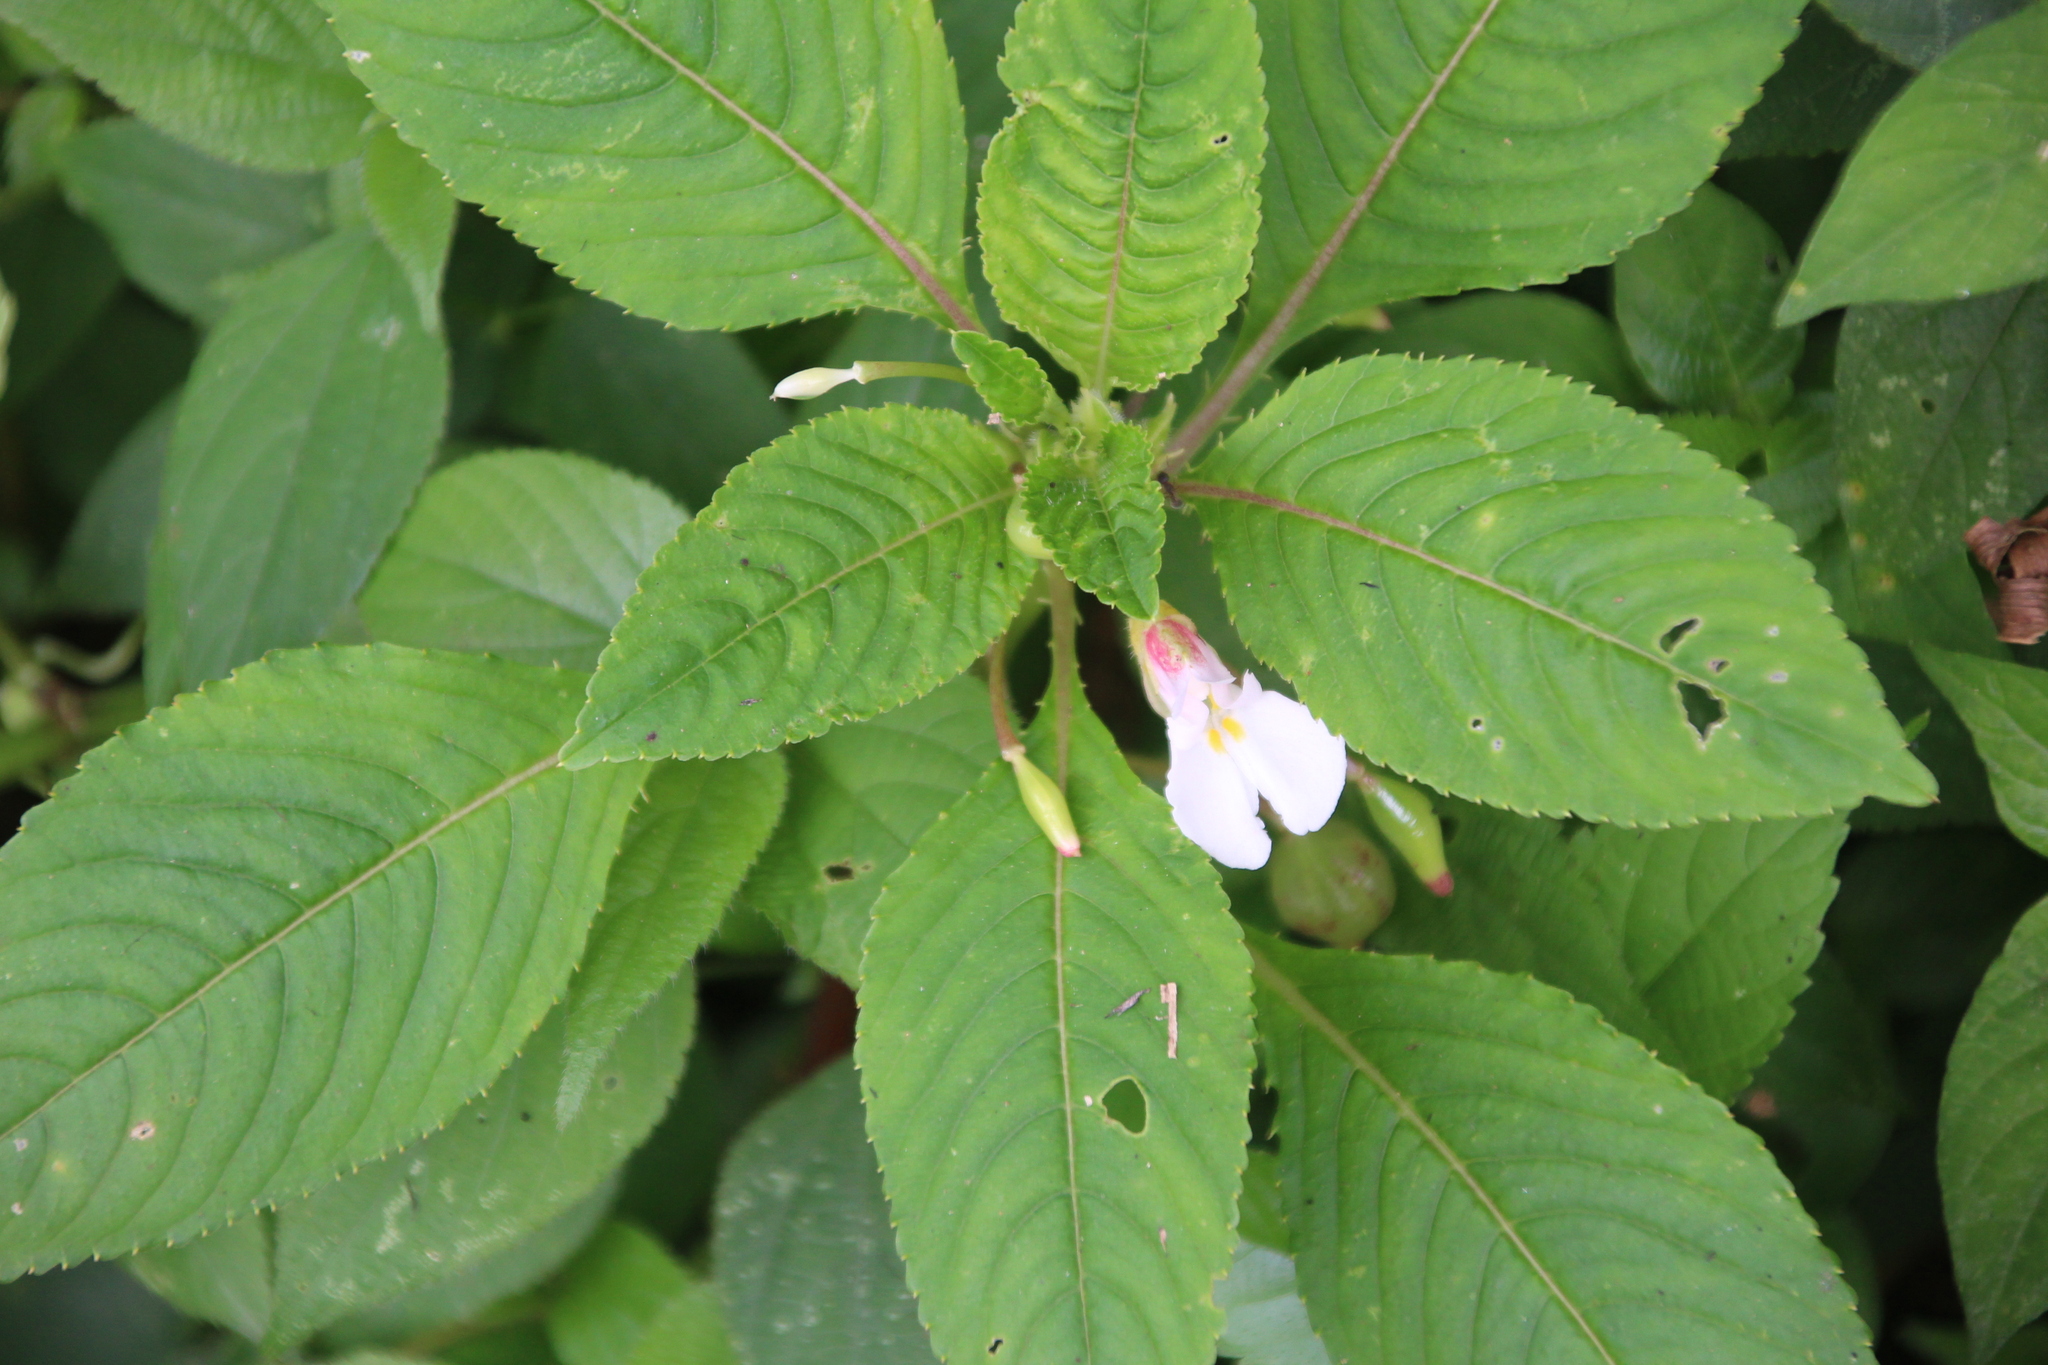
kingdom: Plantae
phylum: Tracheophyta
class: Magnoliopsida
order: Ericales
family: Balsaminaceae
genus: Impatiens
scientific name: Impatiens burtonii
